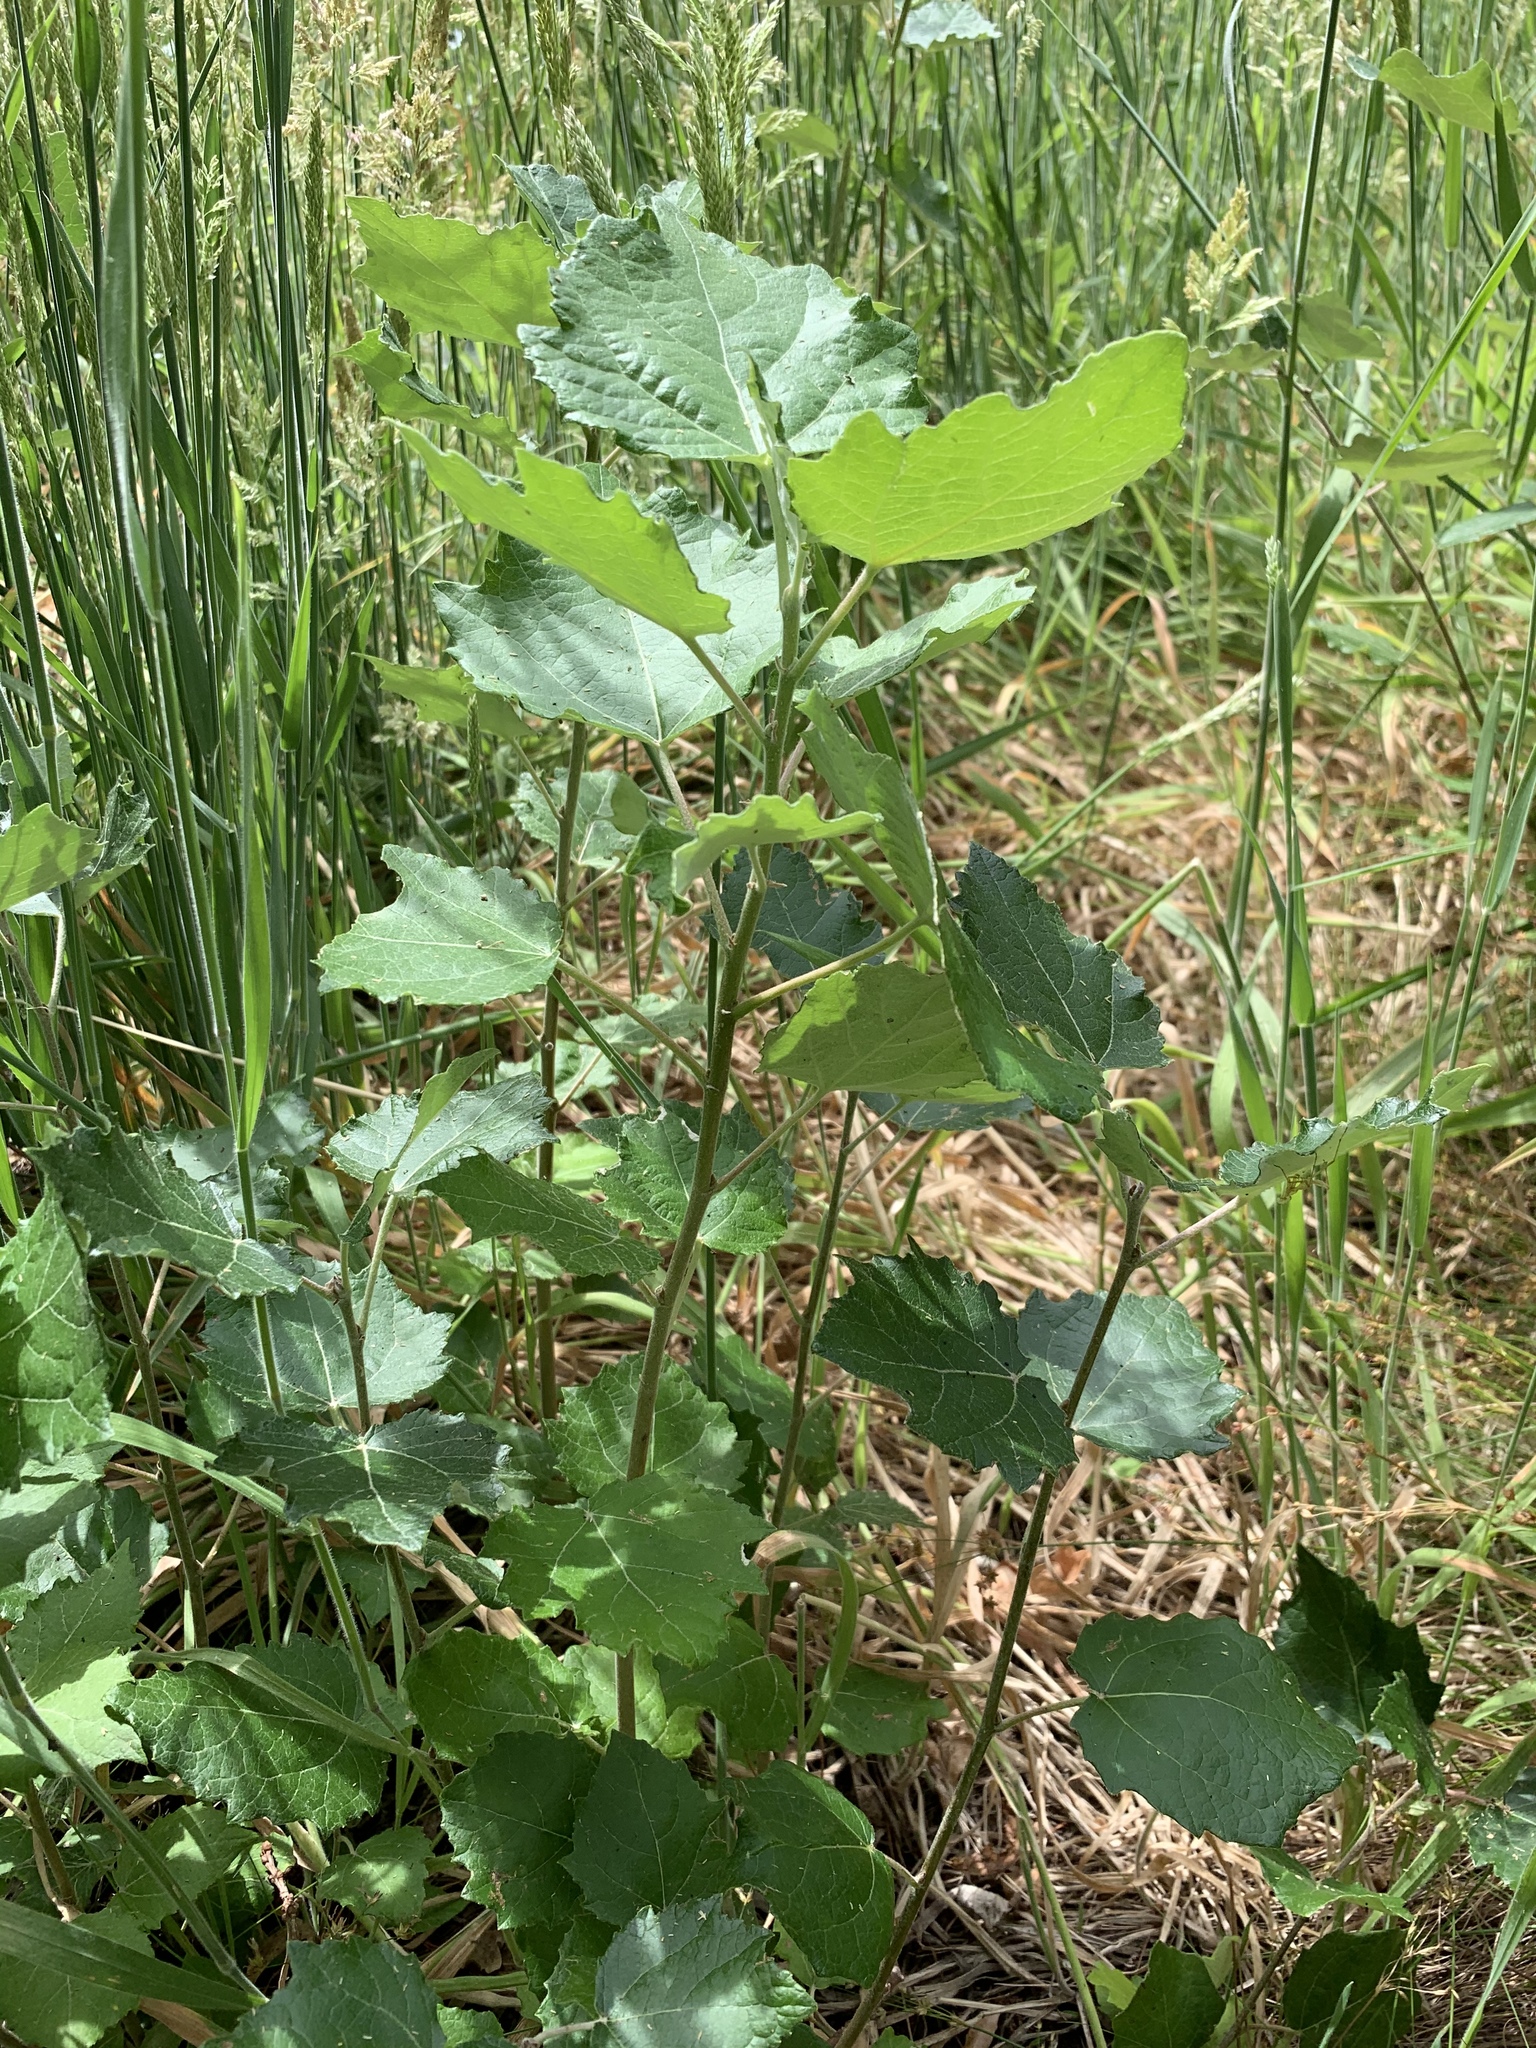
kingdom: Plantae
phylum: Tracheophyta
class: Magnoliopsida
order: Malpighiales
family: Salicaceae
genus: Populus
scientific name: Populus canescens
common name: Gray poplar
